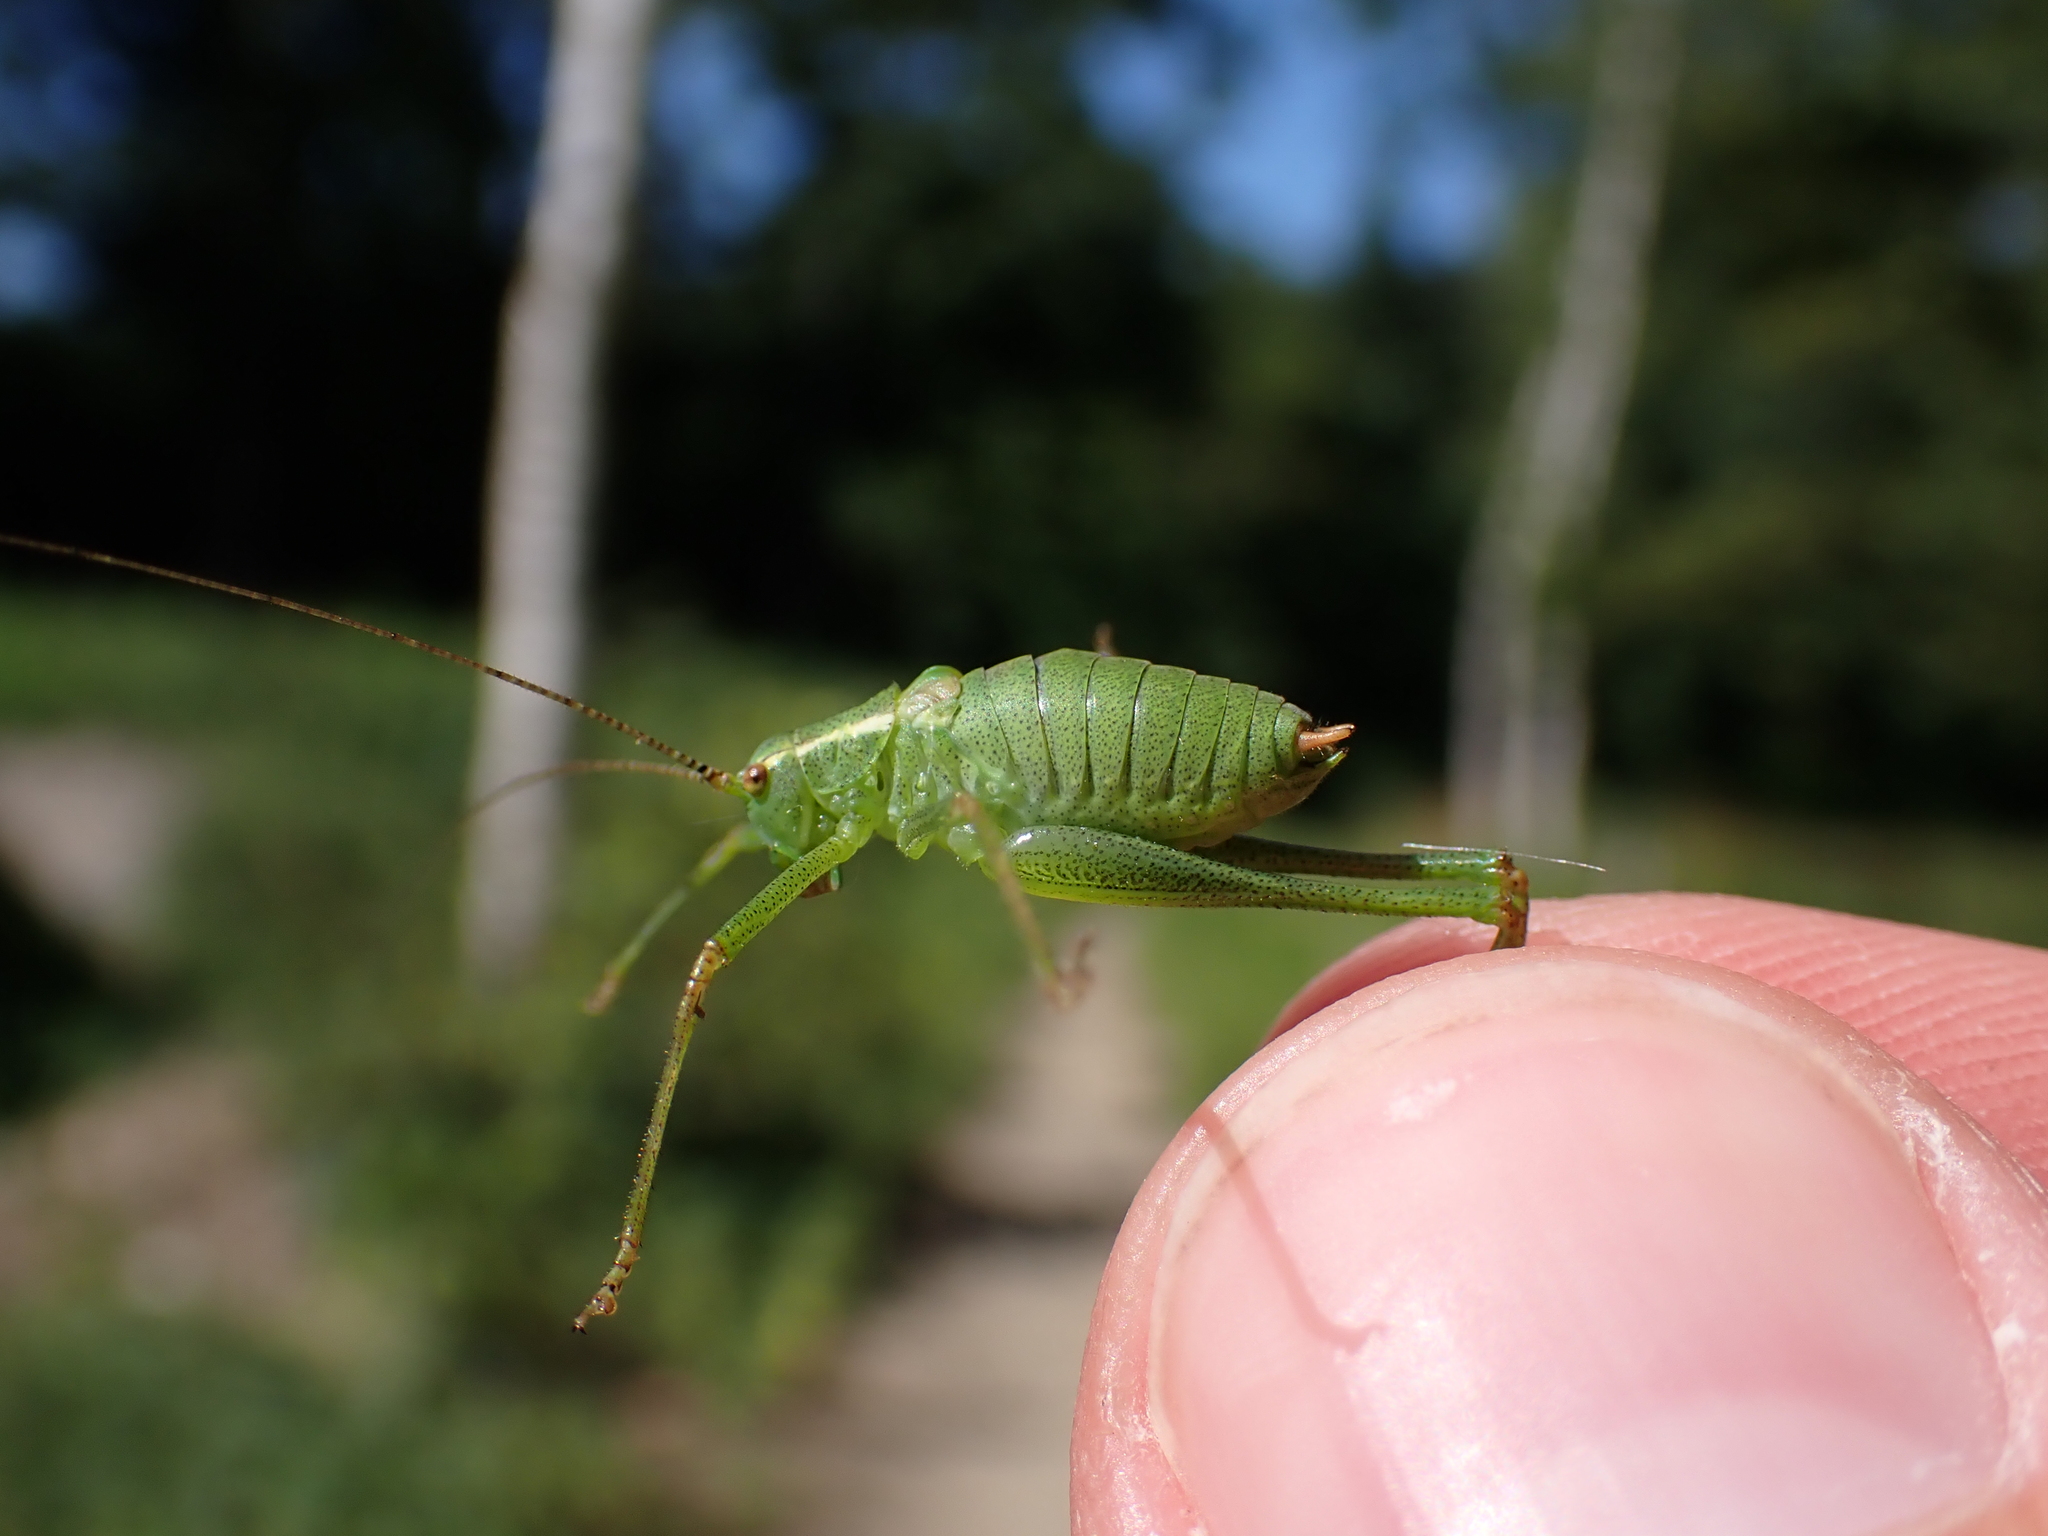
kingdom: Animalia
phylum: Arthropoda
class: Insecta
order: Orthoptera
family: Tettigoniidae
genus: Leptophyes
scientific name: Leptophyes punctatissima
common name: Speckled bush-cricket
